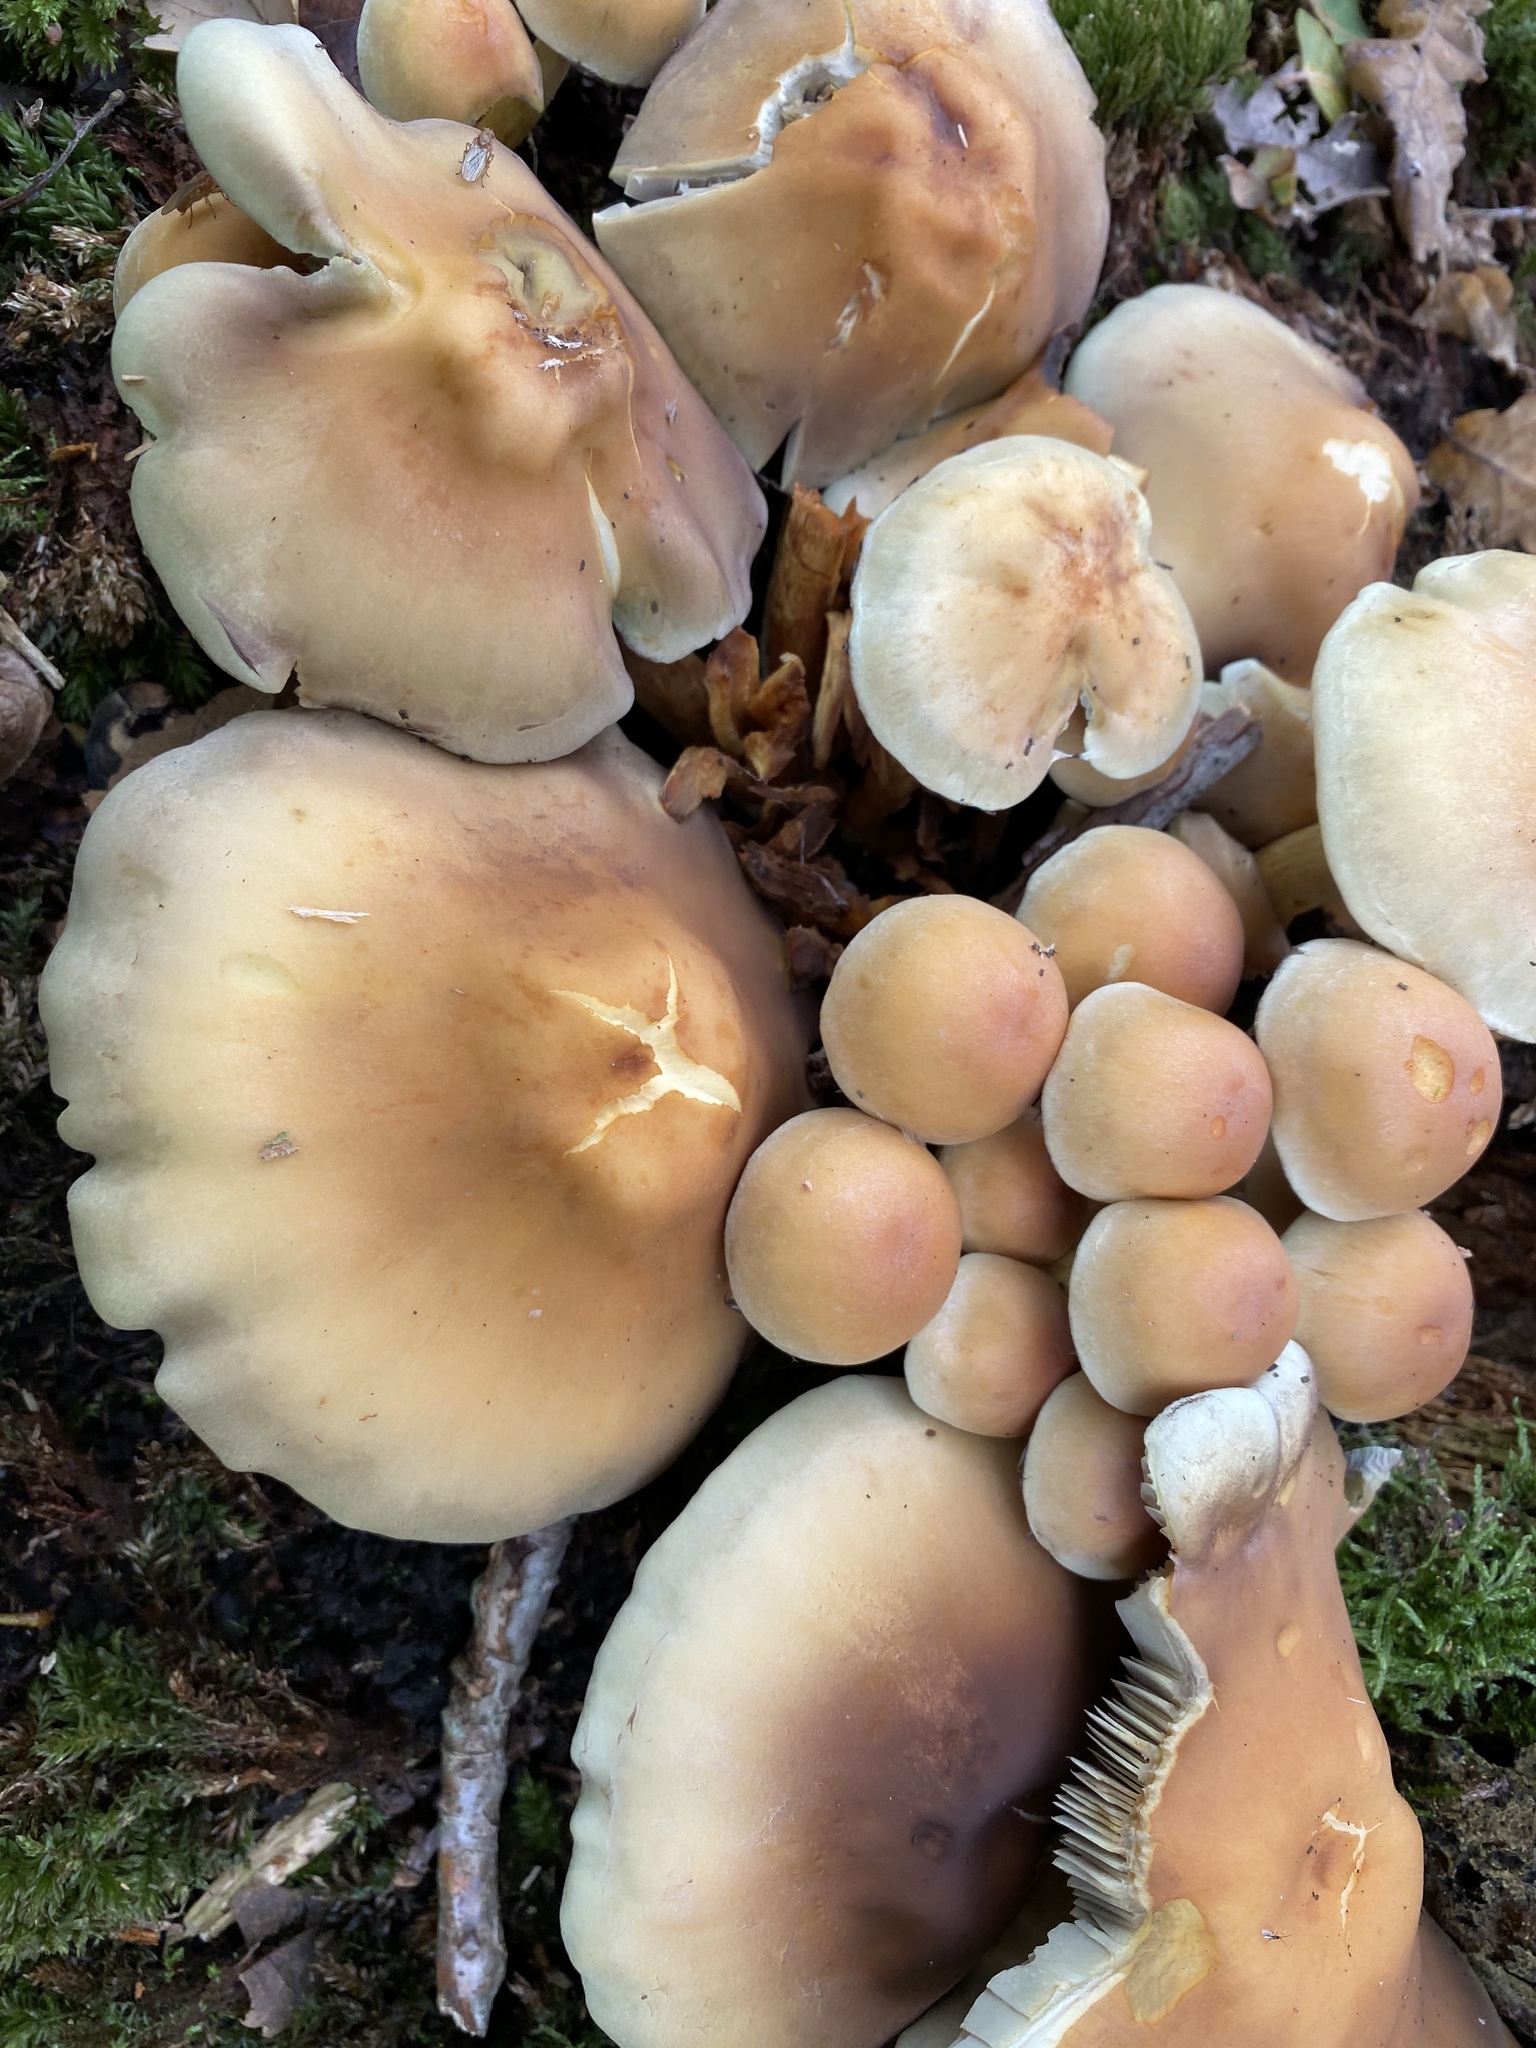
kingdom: Fungi
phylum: Basidiomycota
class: Agaricomycetes
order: Agaricales
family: Strophariaceae
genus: Hypholoma
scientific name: Hypholoma fasciculare
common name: Sulphur tuft
